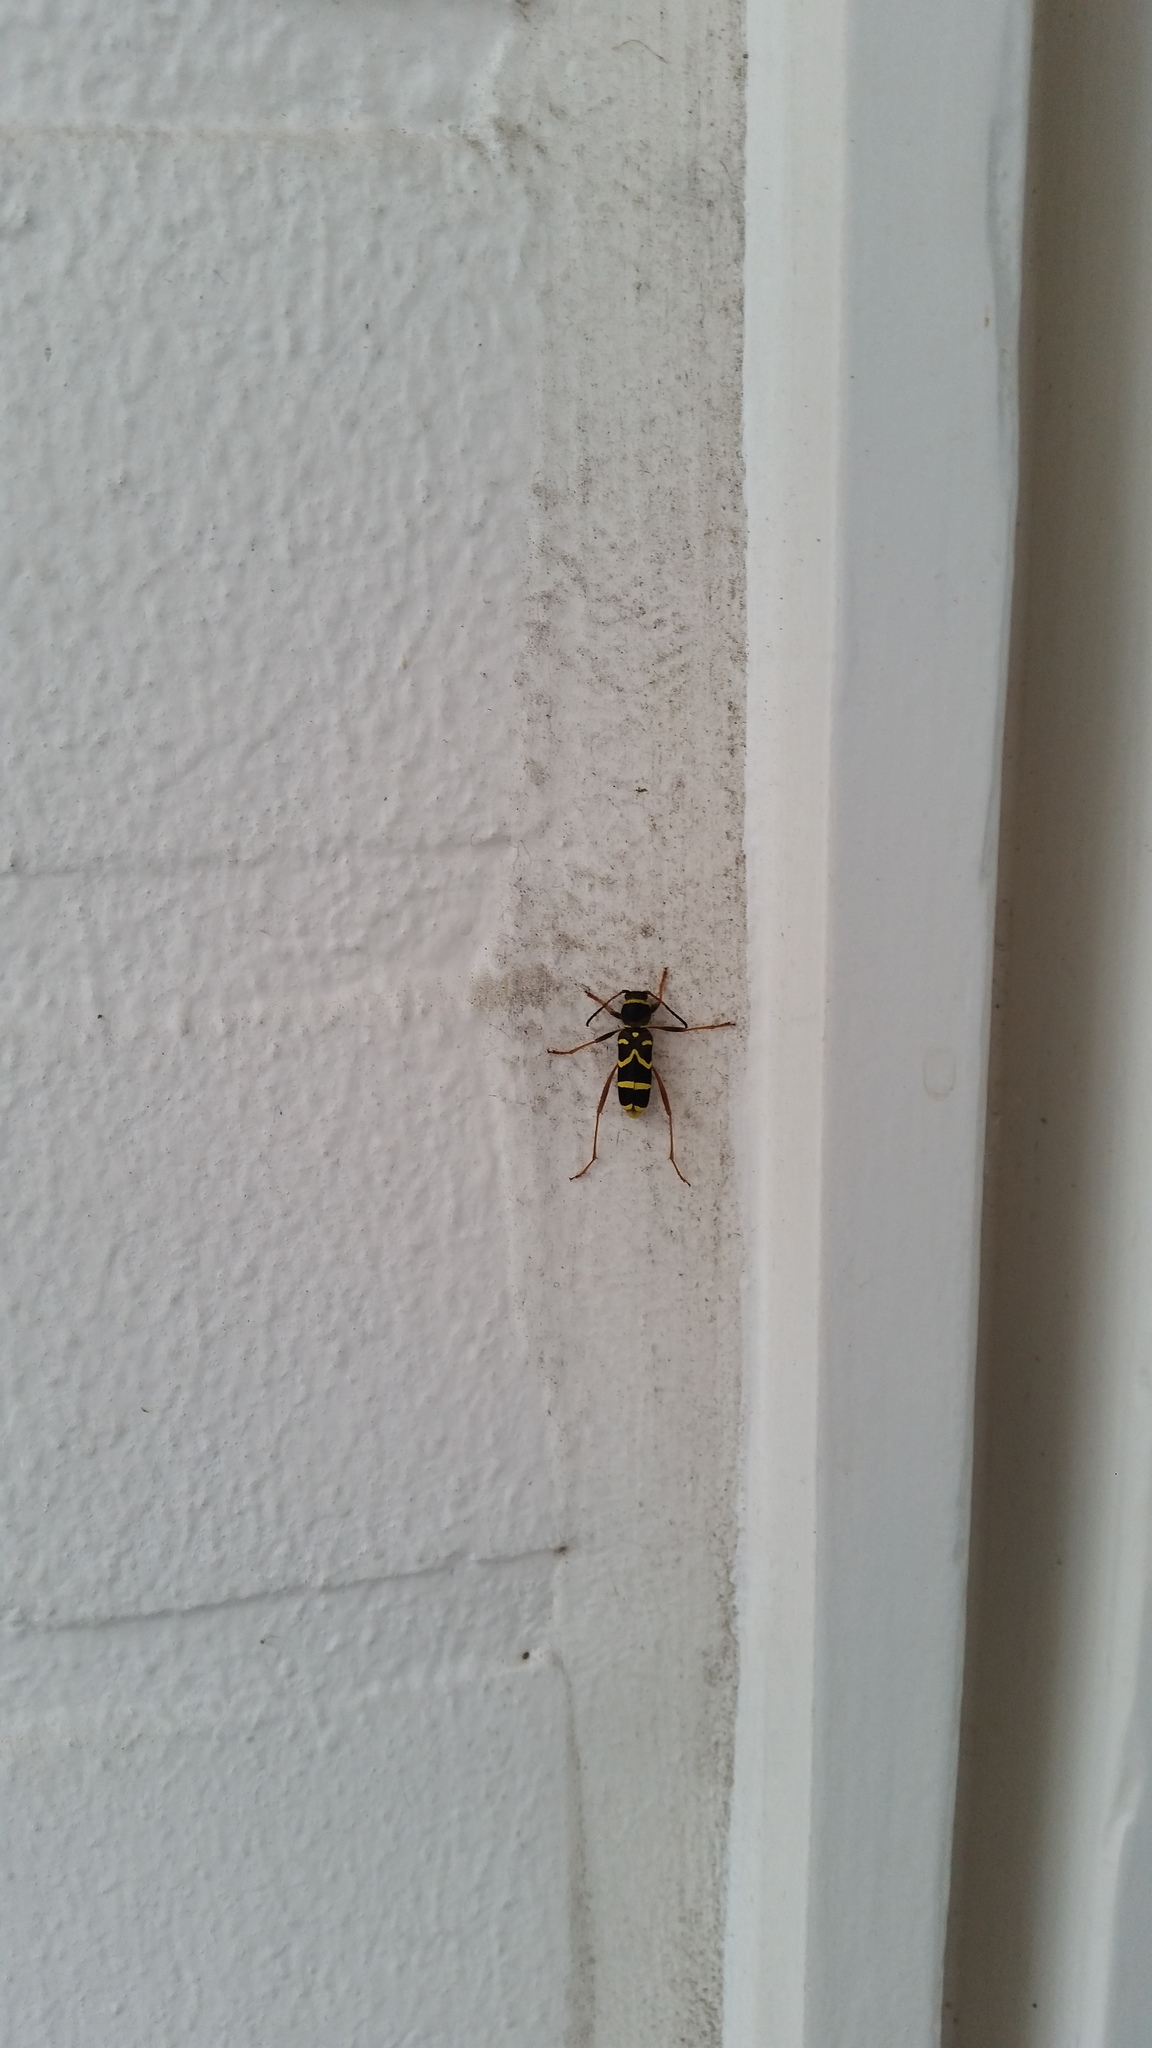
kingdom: Animalia
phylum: Arthropoda
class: Insecta
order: Coleoptera
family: Cerambycidae
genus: Clytus
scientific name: Clytus arietis
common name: Wasp beetle
